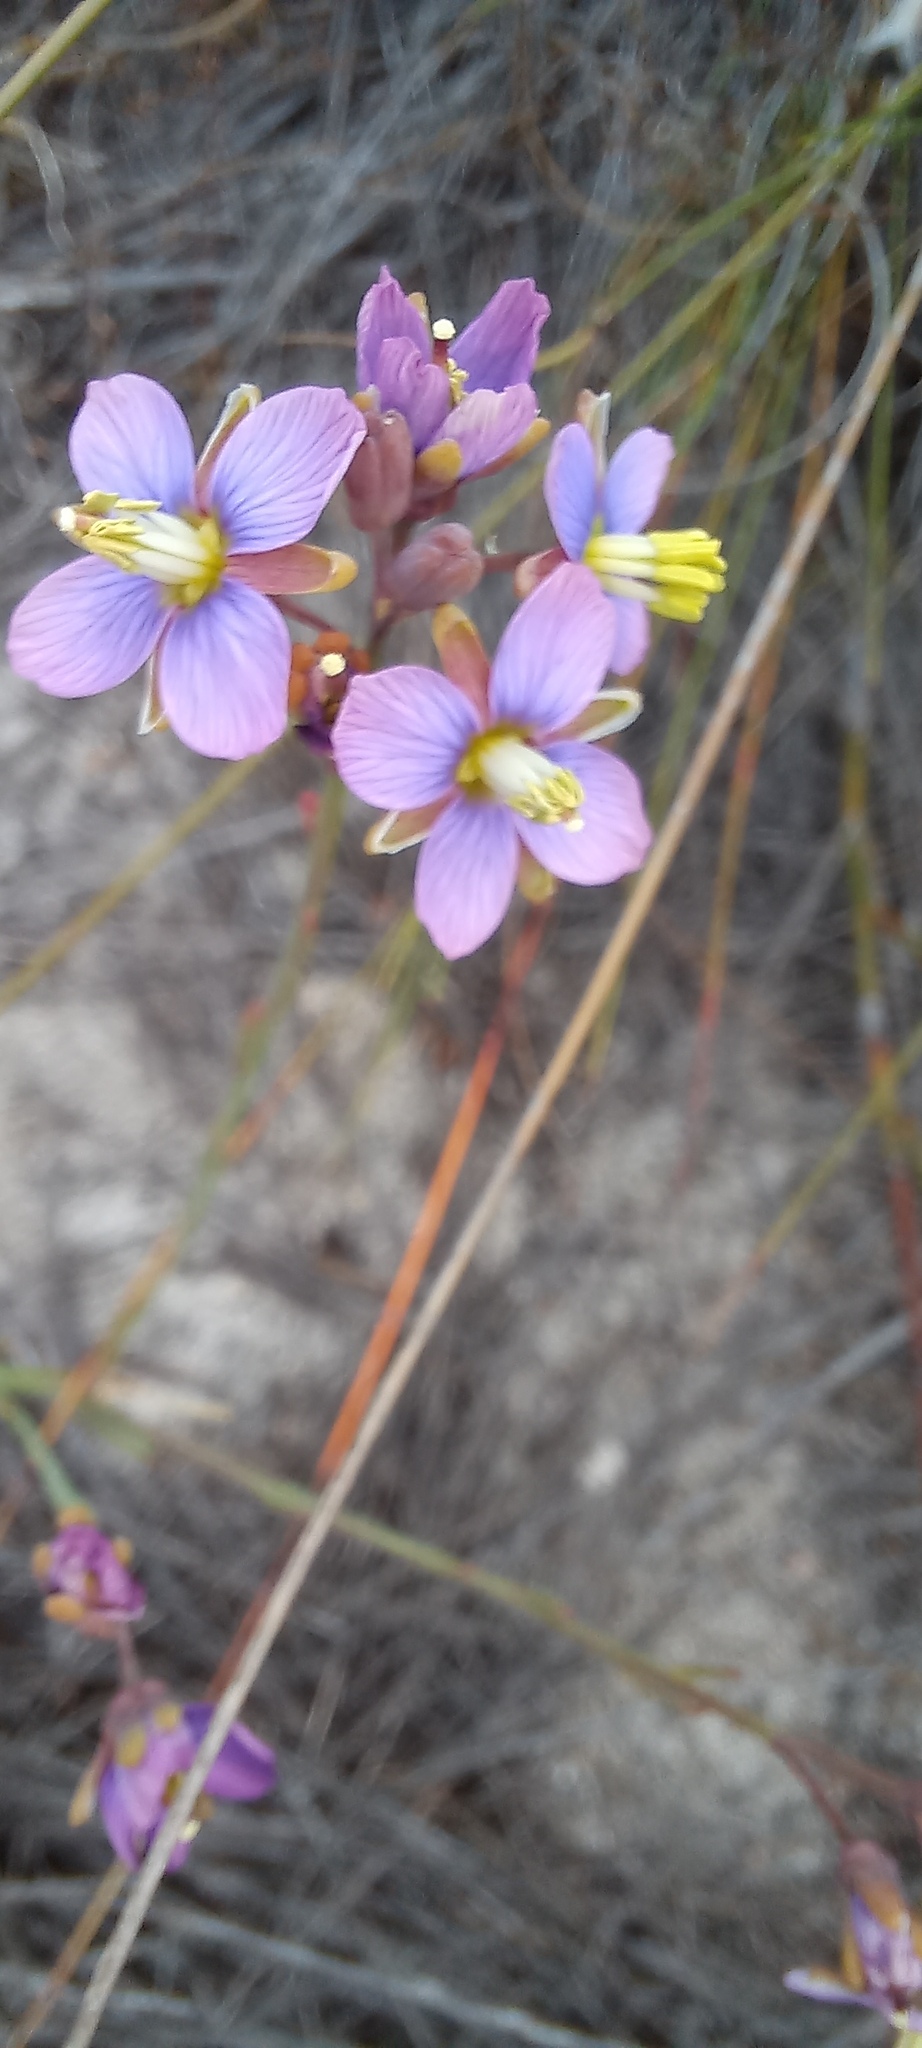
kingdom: Plantae
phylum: Tracheophyta
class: Magnoliopsida
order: Brassicales
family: Brassicaceae
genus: Heliophila
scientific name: Heliophila linearis
